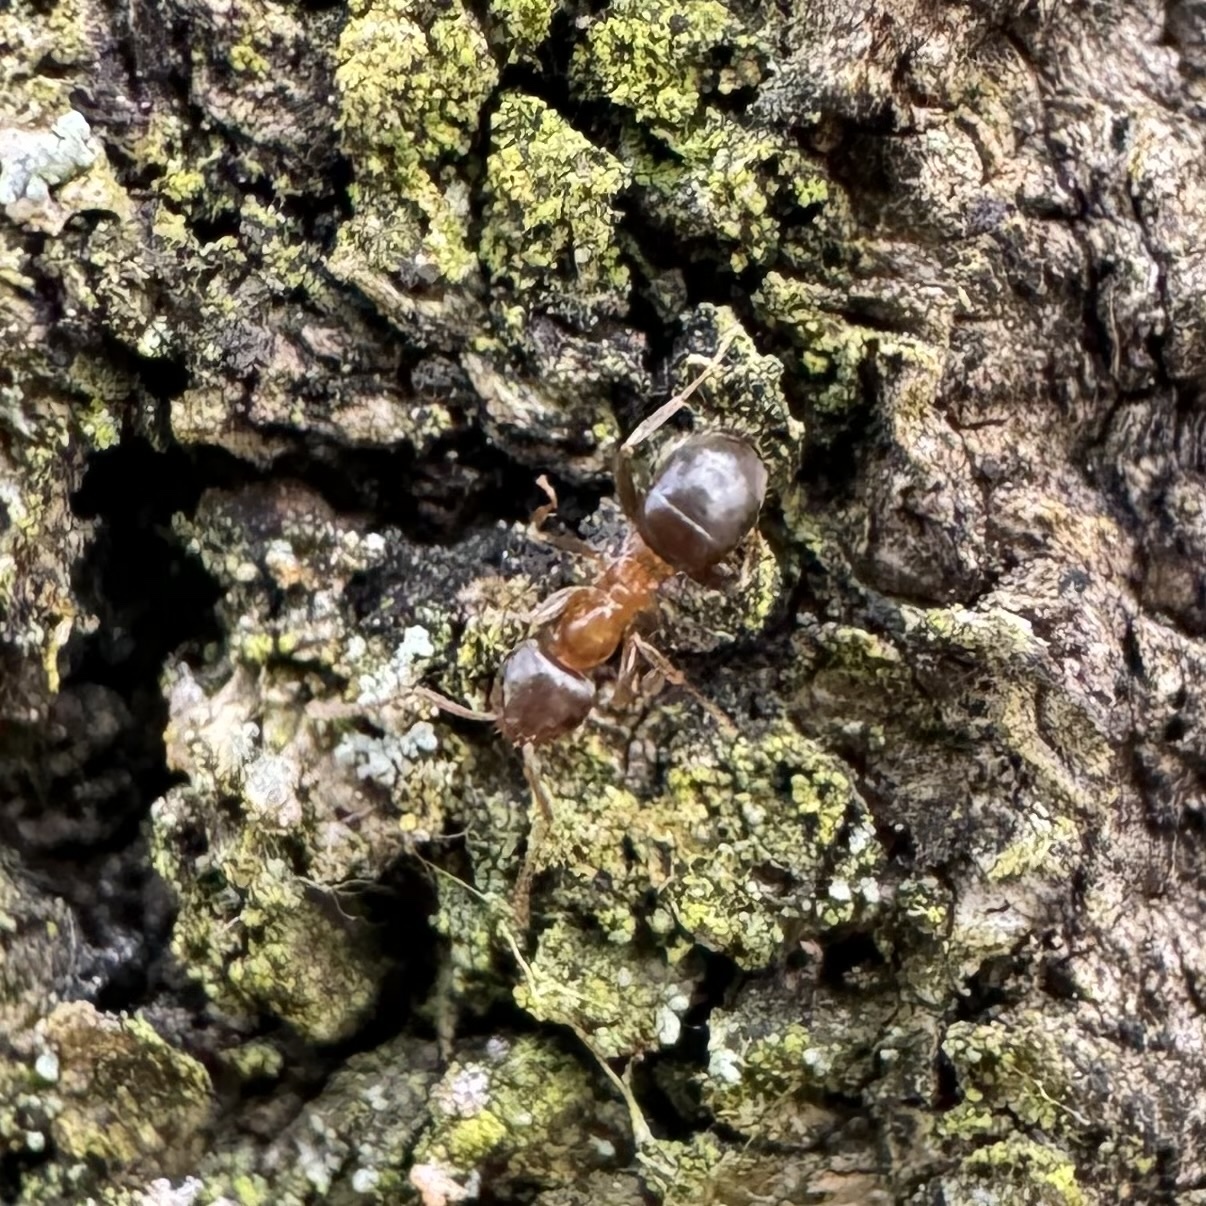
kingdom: Animalia
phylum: Arthropoda
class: Insecta
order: Hymenoptera
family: Formicidae
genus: Lasius
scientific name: Lasius brunneus
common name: Brown ant
